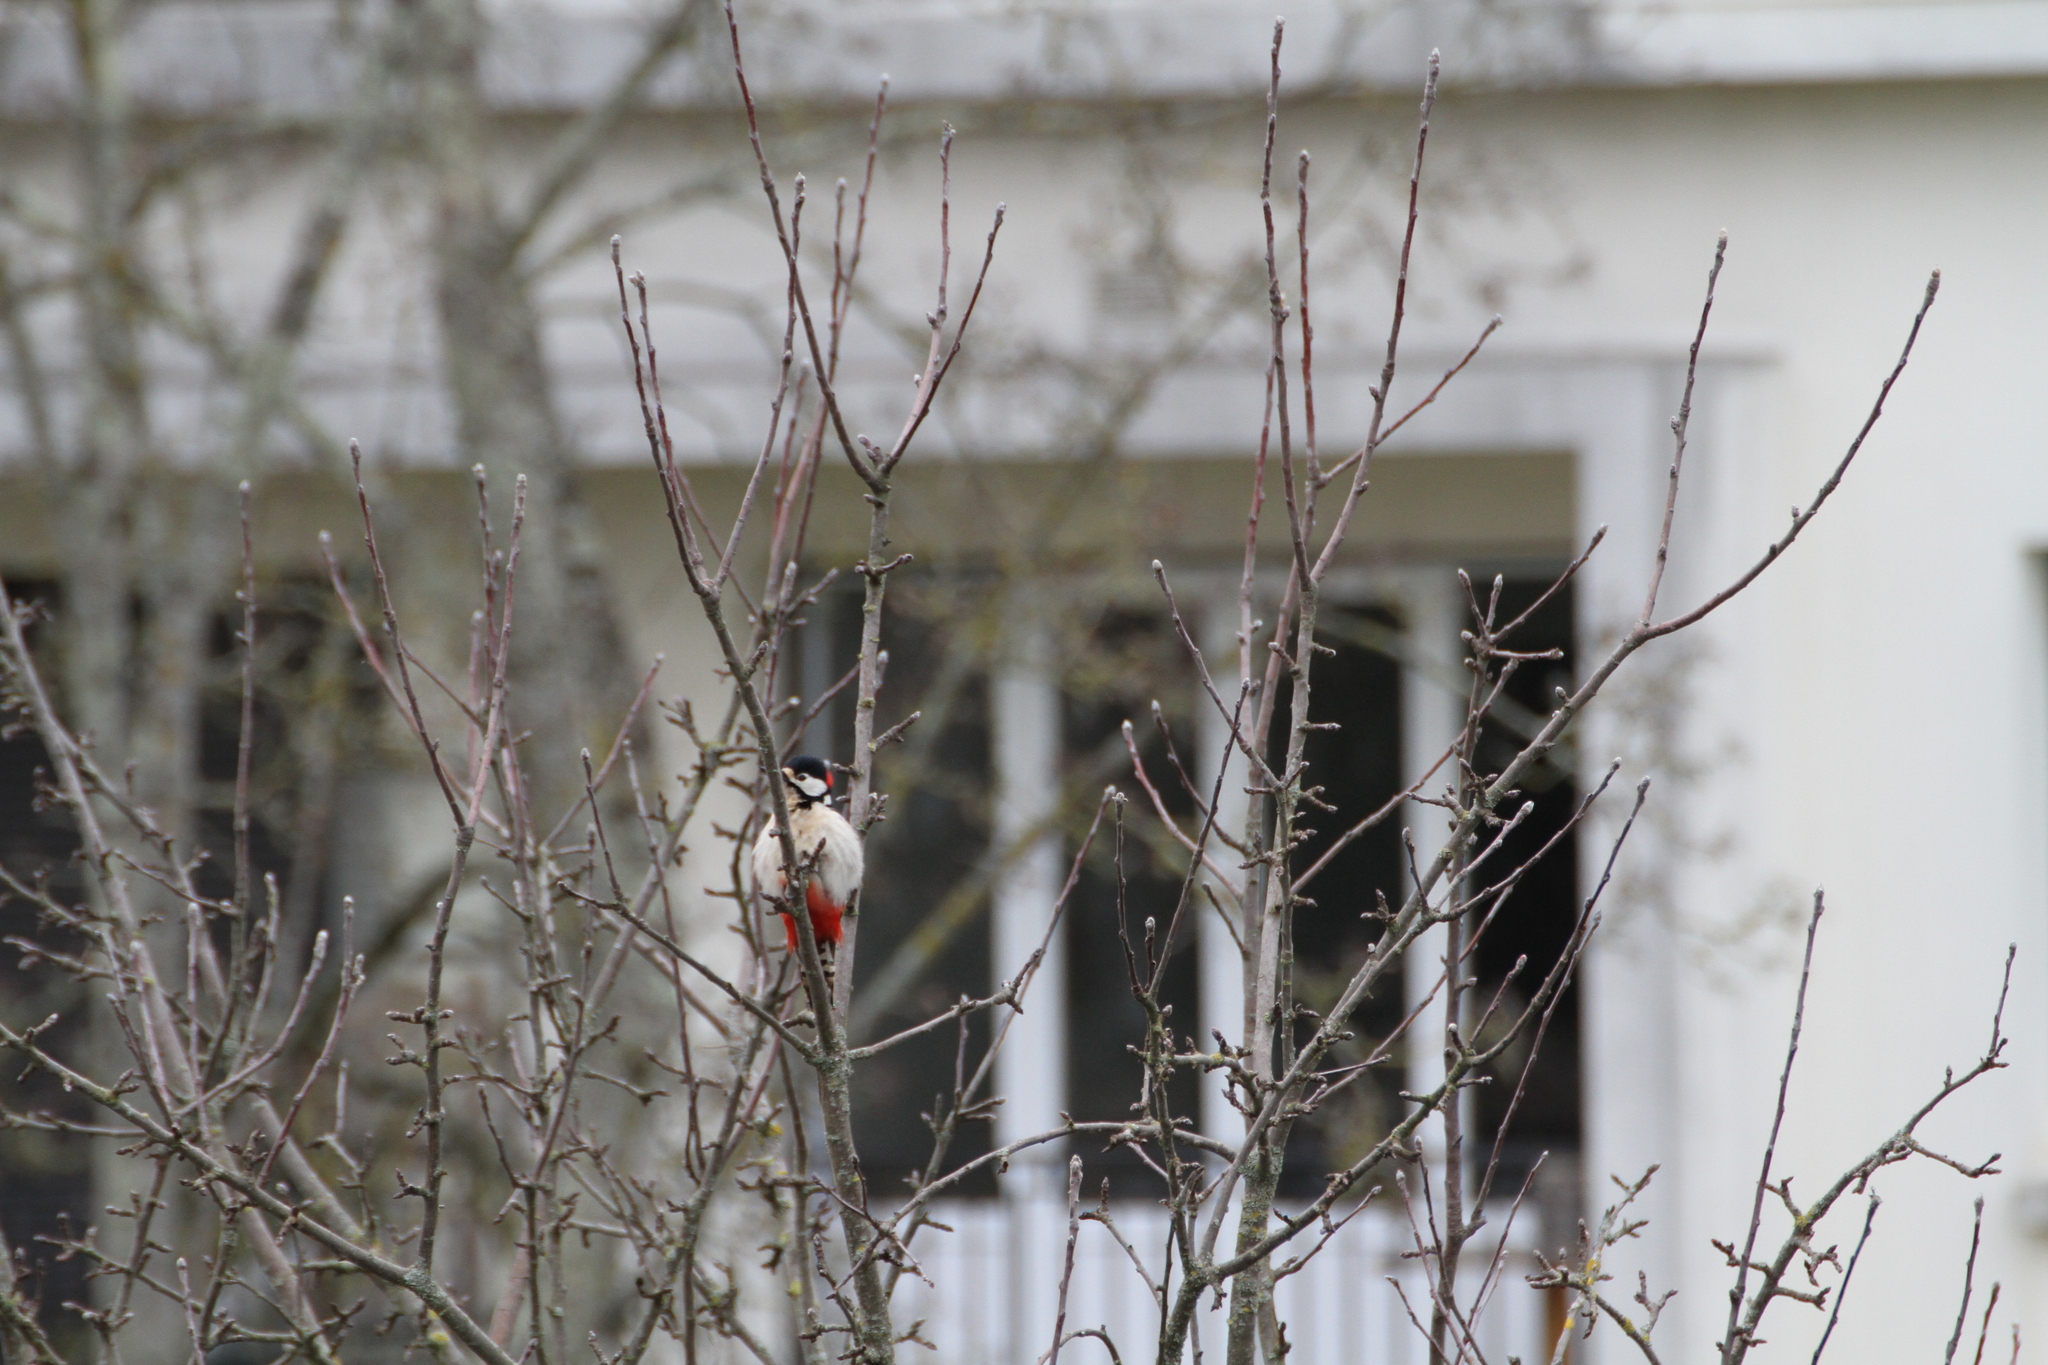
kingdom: Animalia
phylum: Chordata
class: Aves
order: Piciformes
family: Picidae
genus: Dendrocopos
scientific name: Dendrocopos major
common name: Great spotted woodpecker
